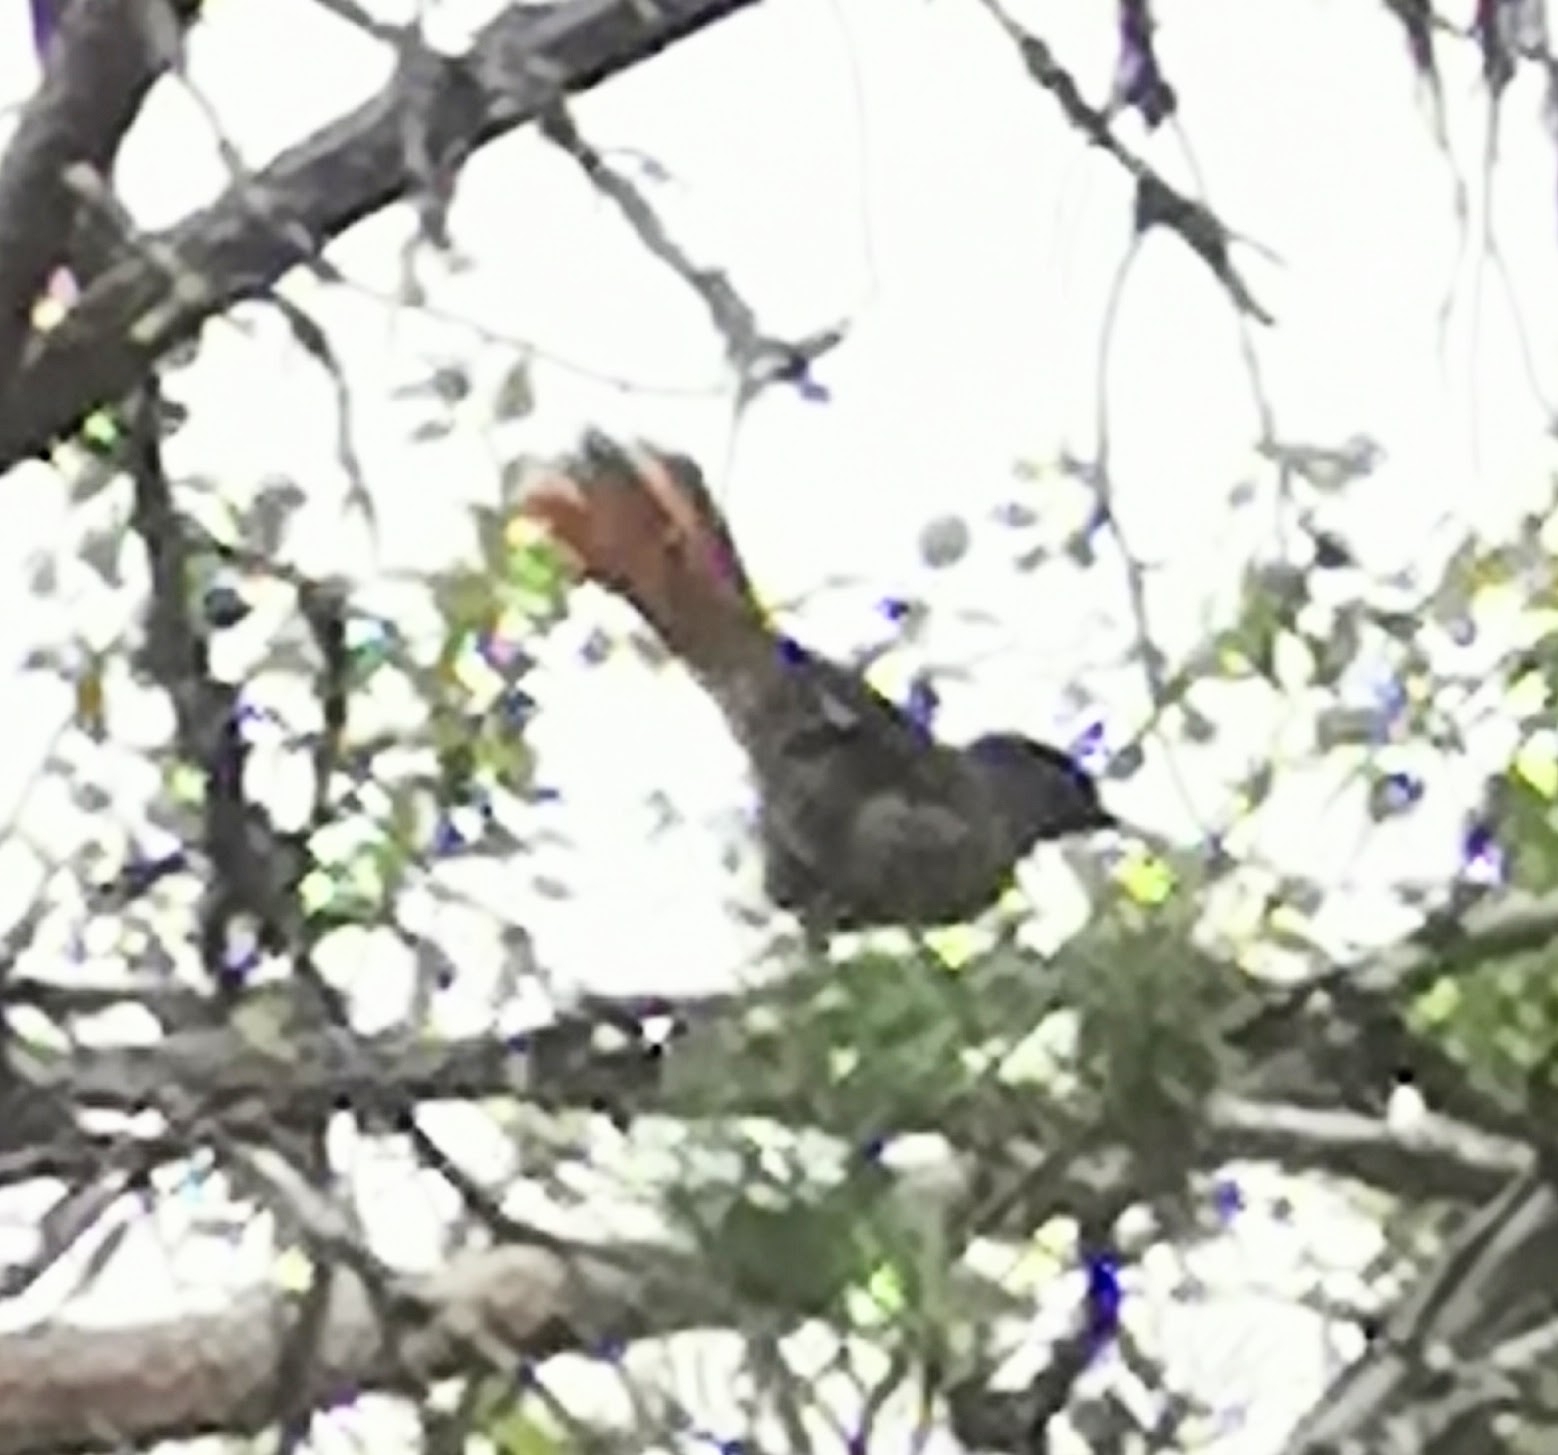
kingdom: Animalia
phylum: Chordata
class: Aves
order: Passeriformes
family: Corvidae
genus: Perisoreus
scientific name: Perisoreus infaustus
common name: Siberian jay
